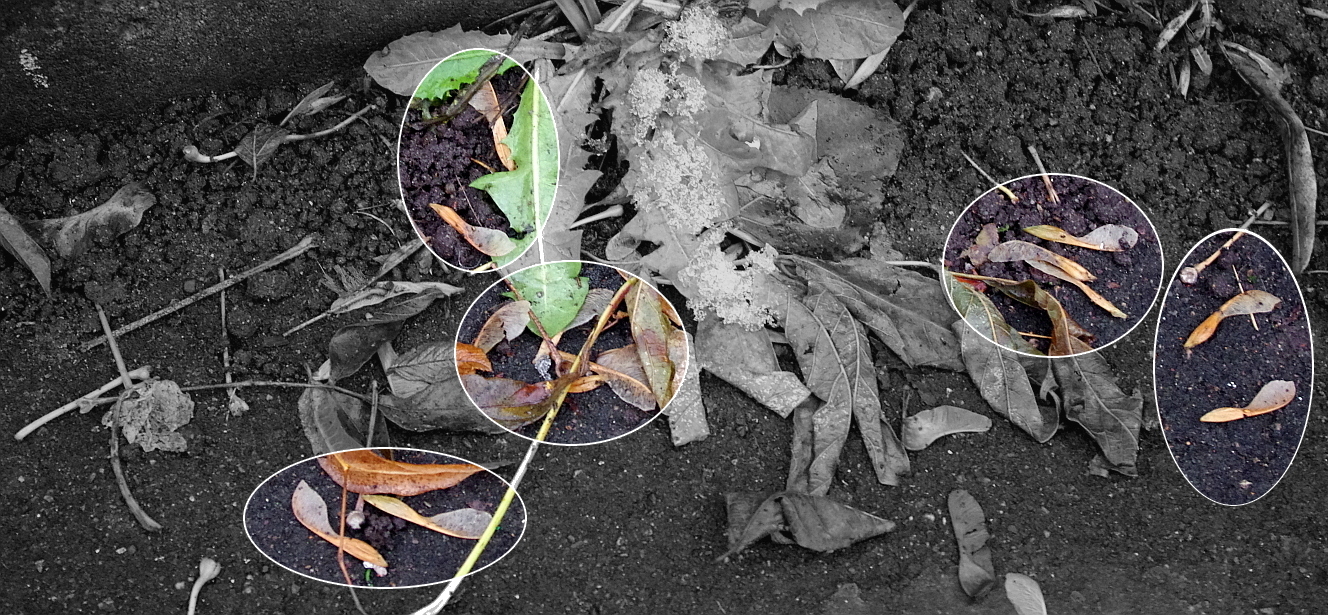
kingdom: Plantae
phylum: Tracheophyta
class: Magnoliopsida
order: Sapindales
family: Sapindaceae
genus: Acer
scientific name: Acer negundo
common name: Ashleaf maple
